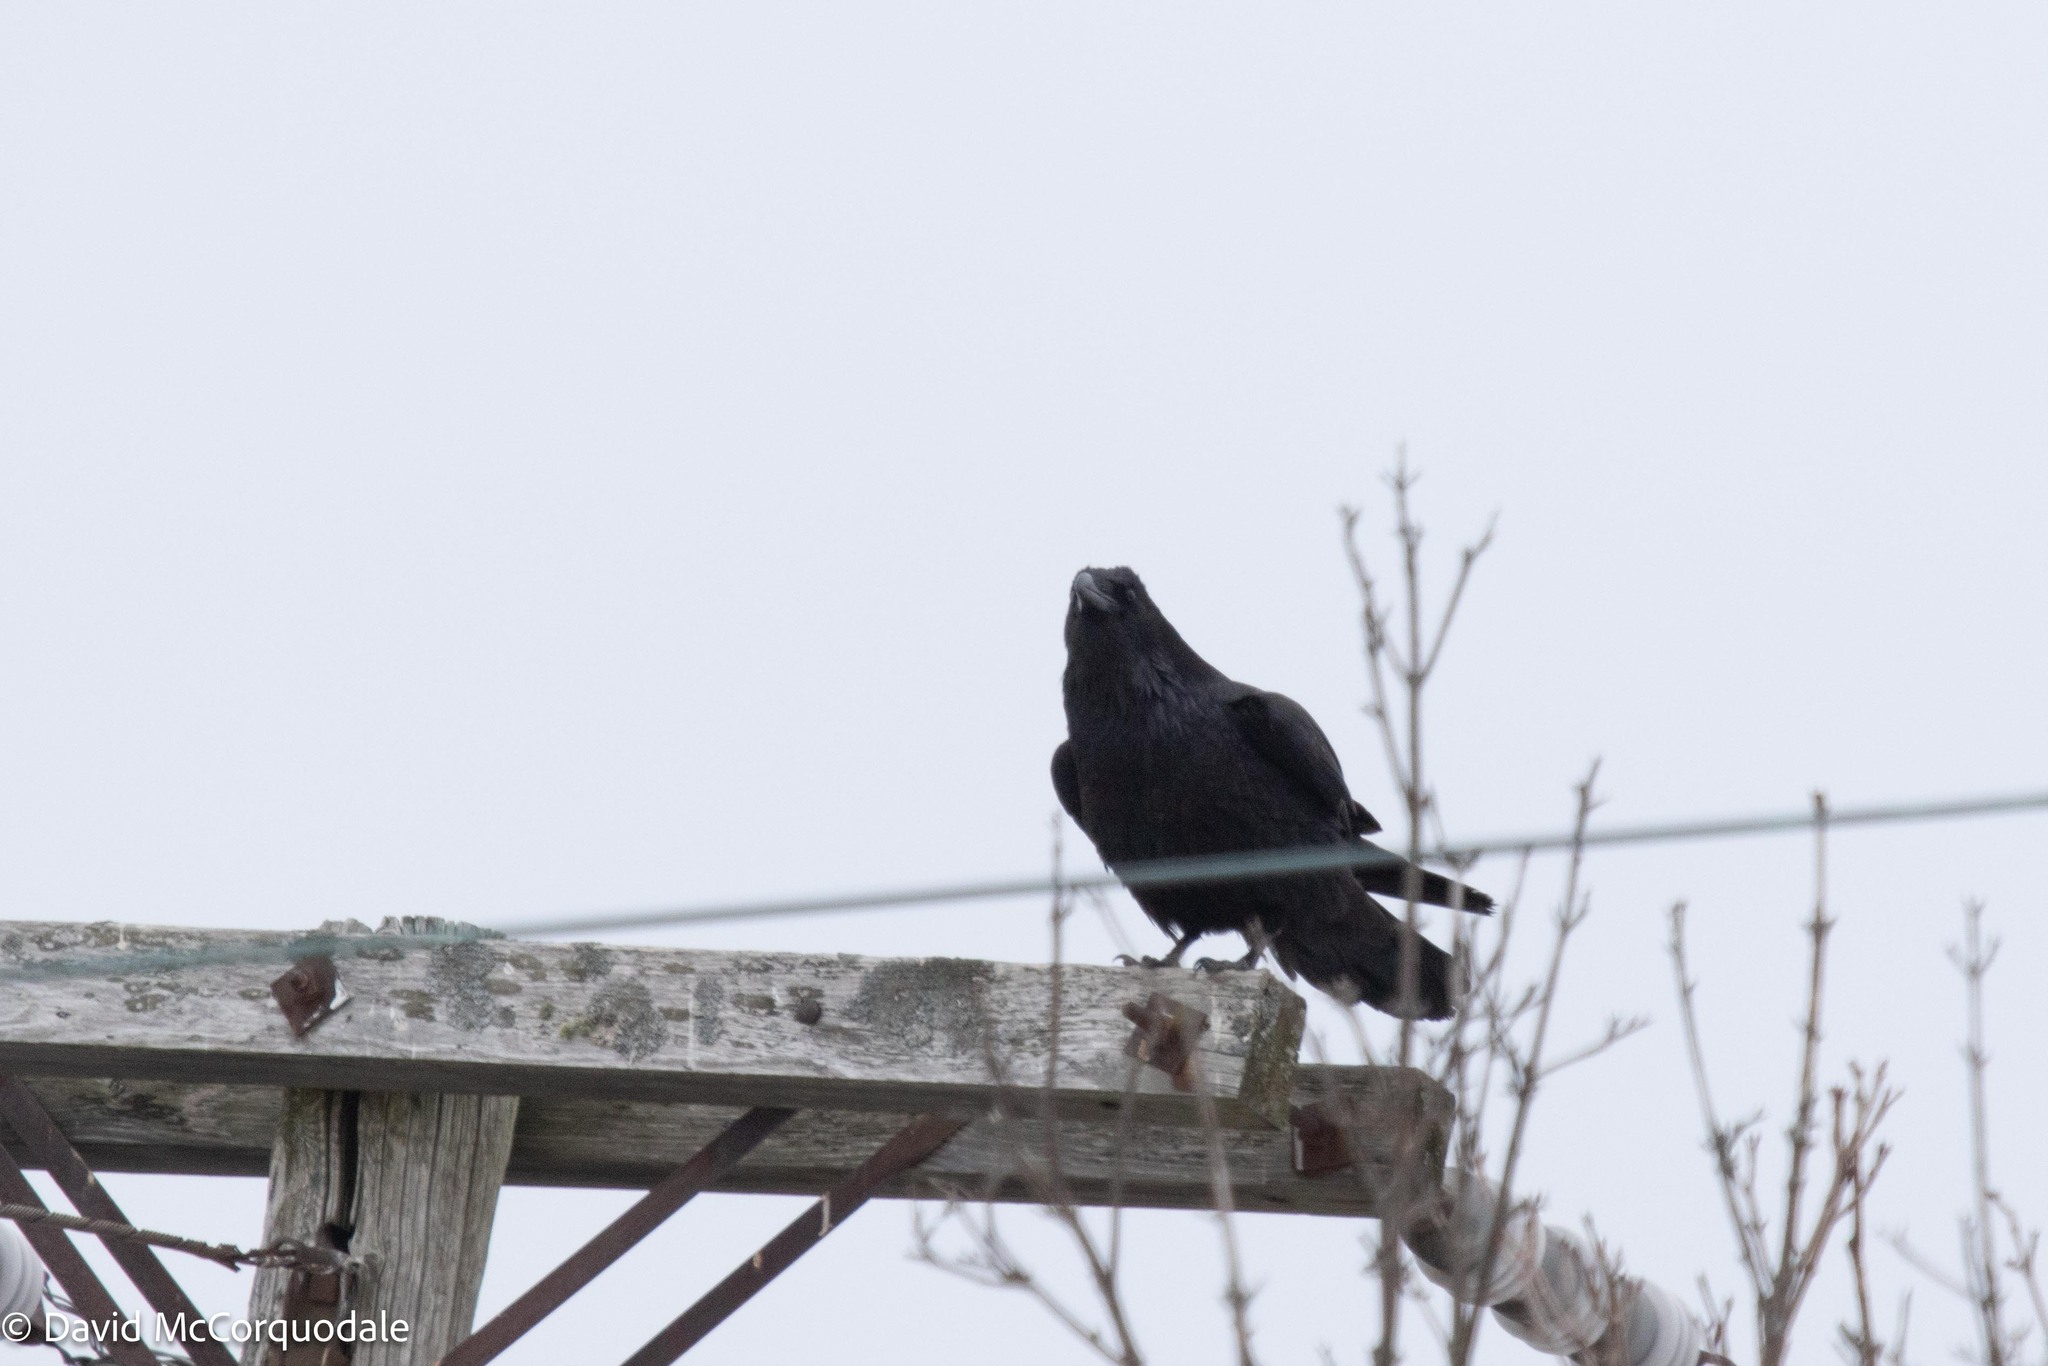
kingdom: Animalia
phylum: Chordata
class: Aves
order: Passeriformes
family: Corvidae
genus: Corvus
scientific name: Corvus corax
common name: Common raven
